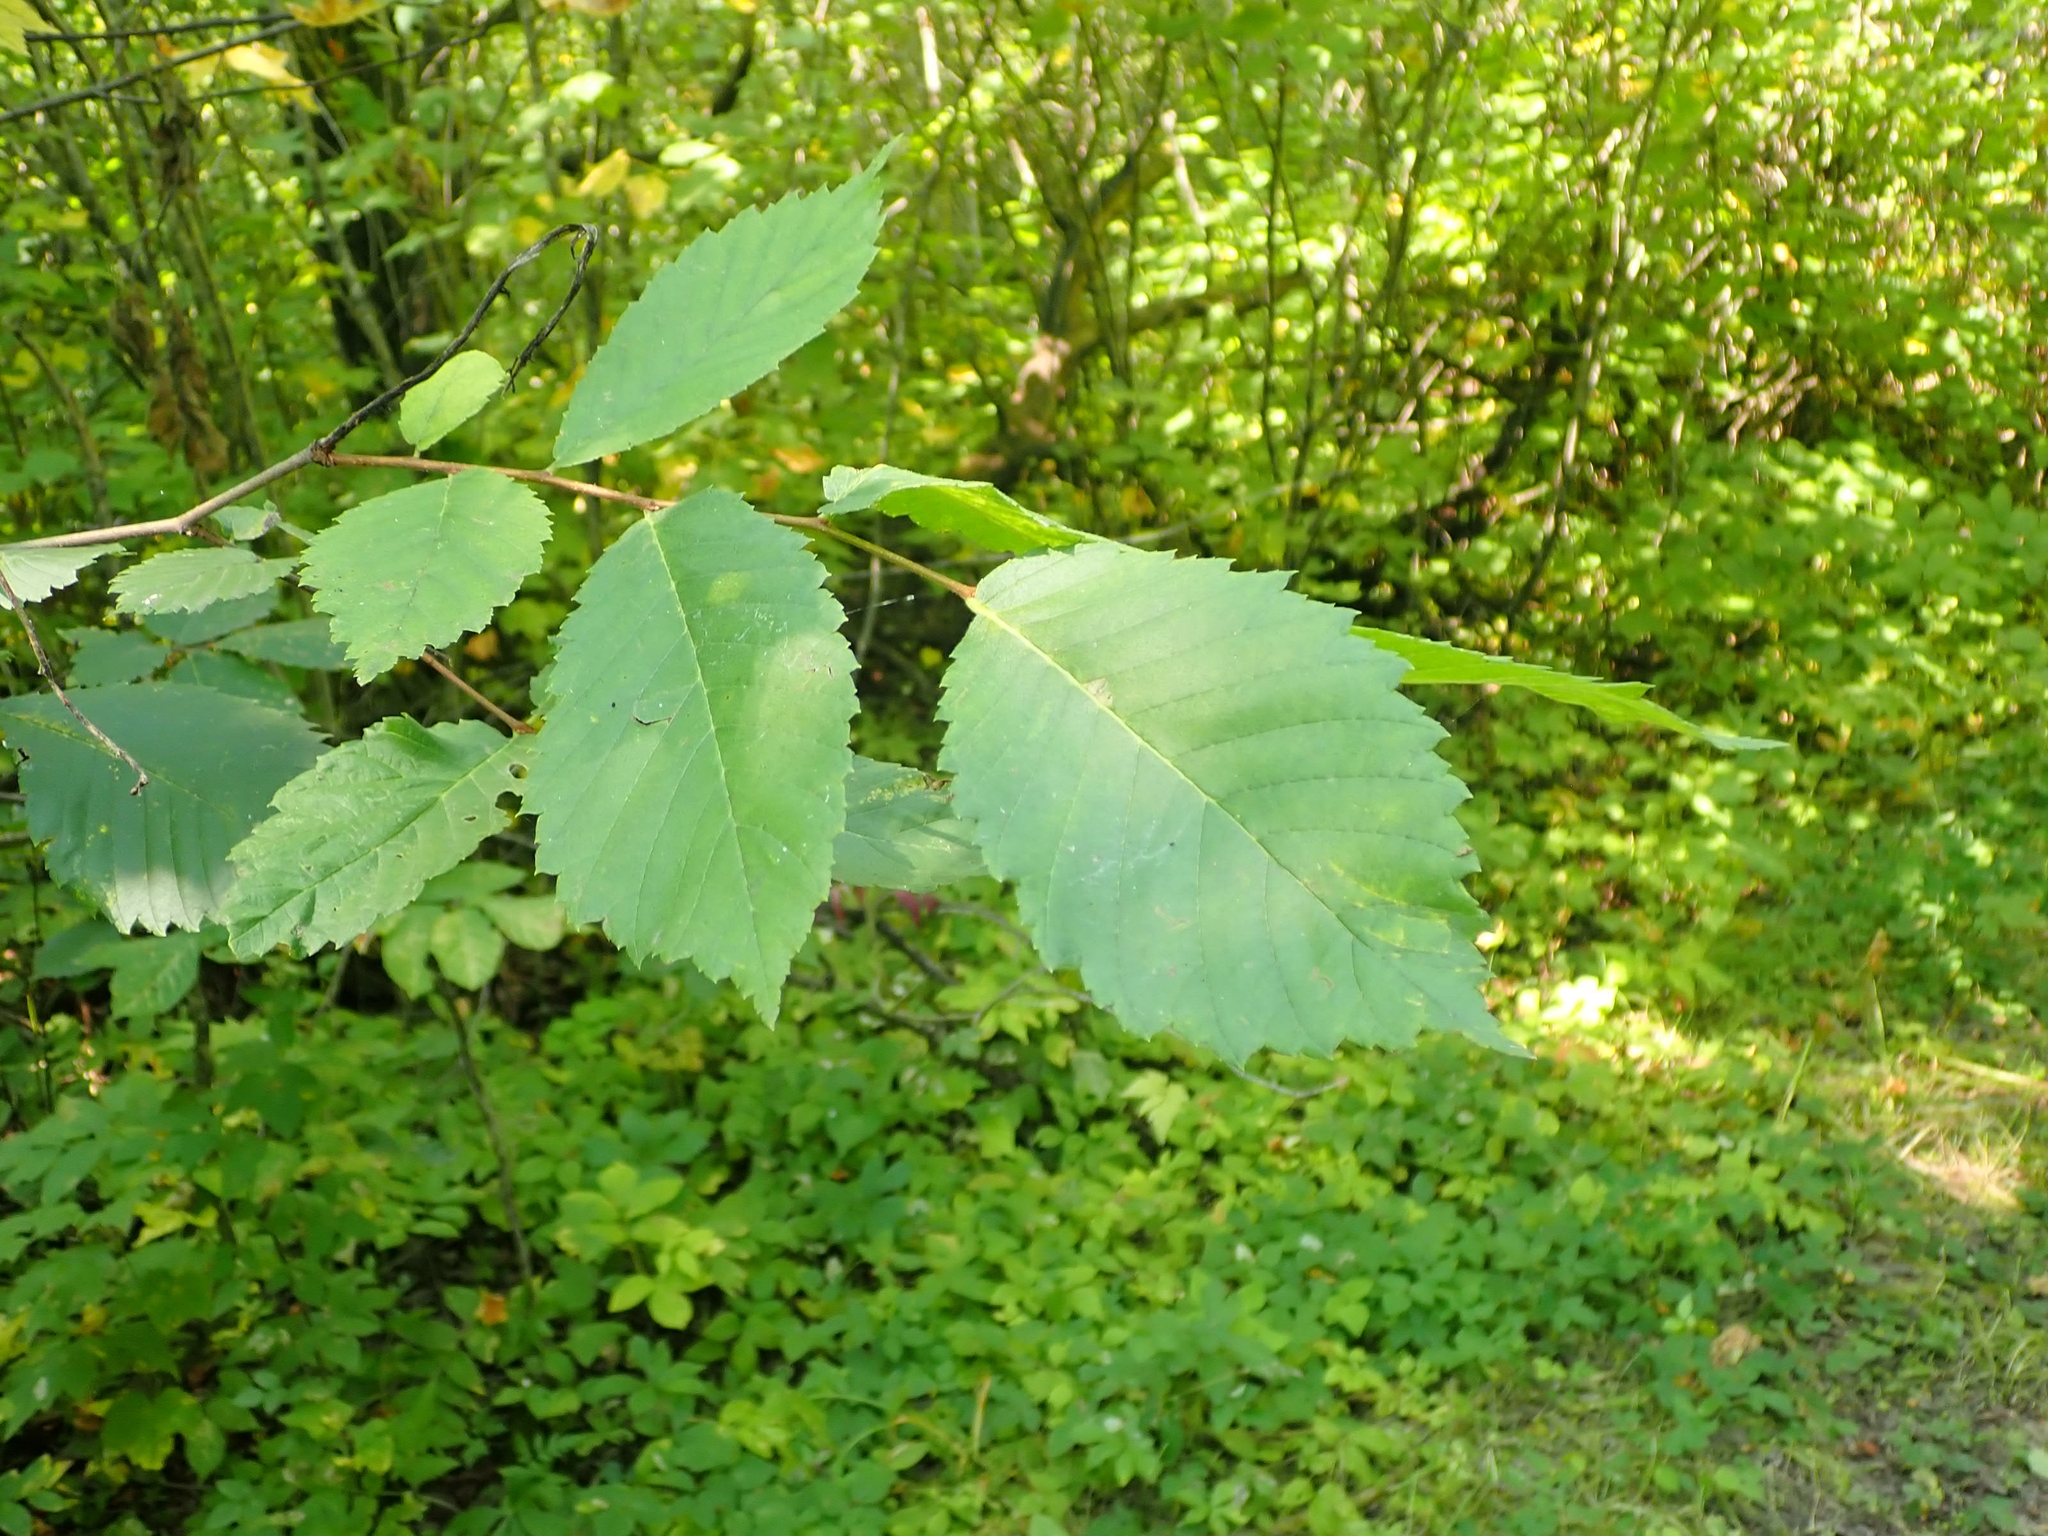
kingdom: Plantae
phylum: Tracheophyta
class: Magnoliopsida
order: Rosales
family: Ulmaceae
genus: Ulmus
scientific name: Ulmus americana
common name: American elm
